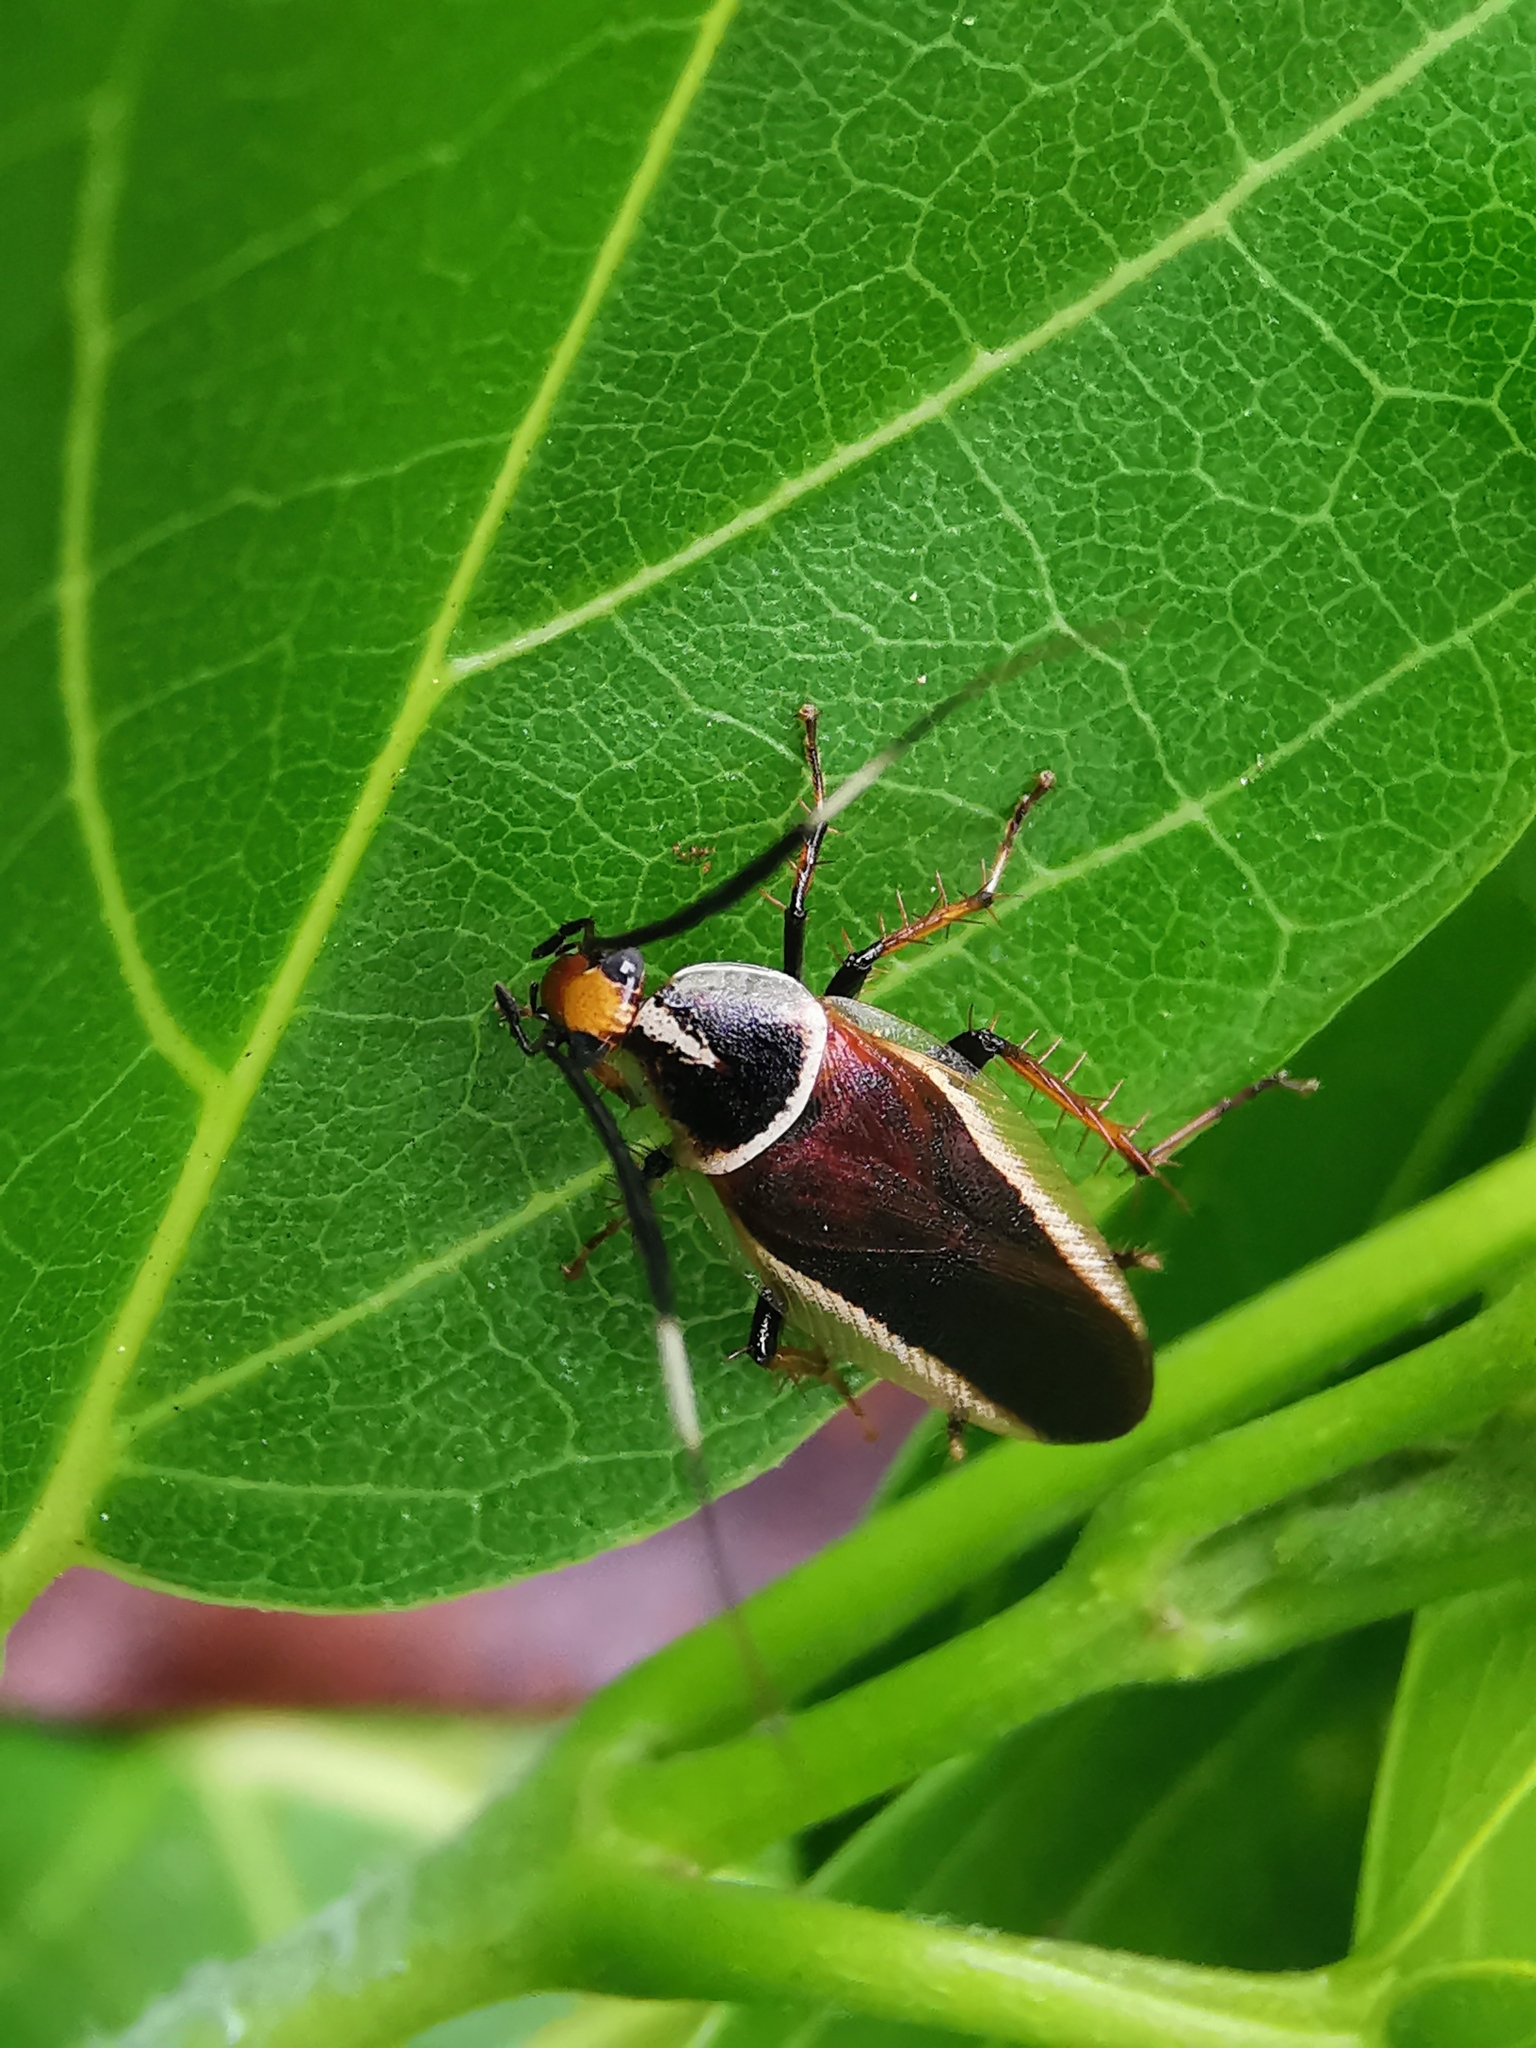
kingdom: Animalia
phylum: Arthropoda
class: Insecta
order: Blattodea
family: Ectobiidae
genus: Hemithyrsocera
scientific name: Hemithyrsocera histrio
